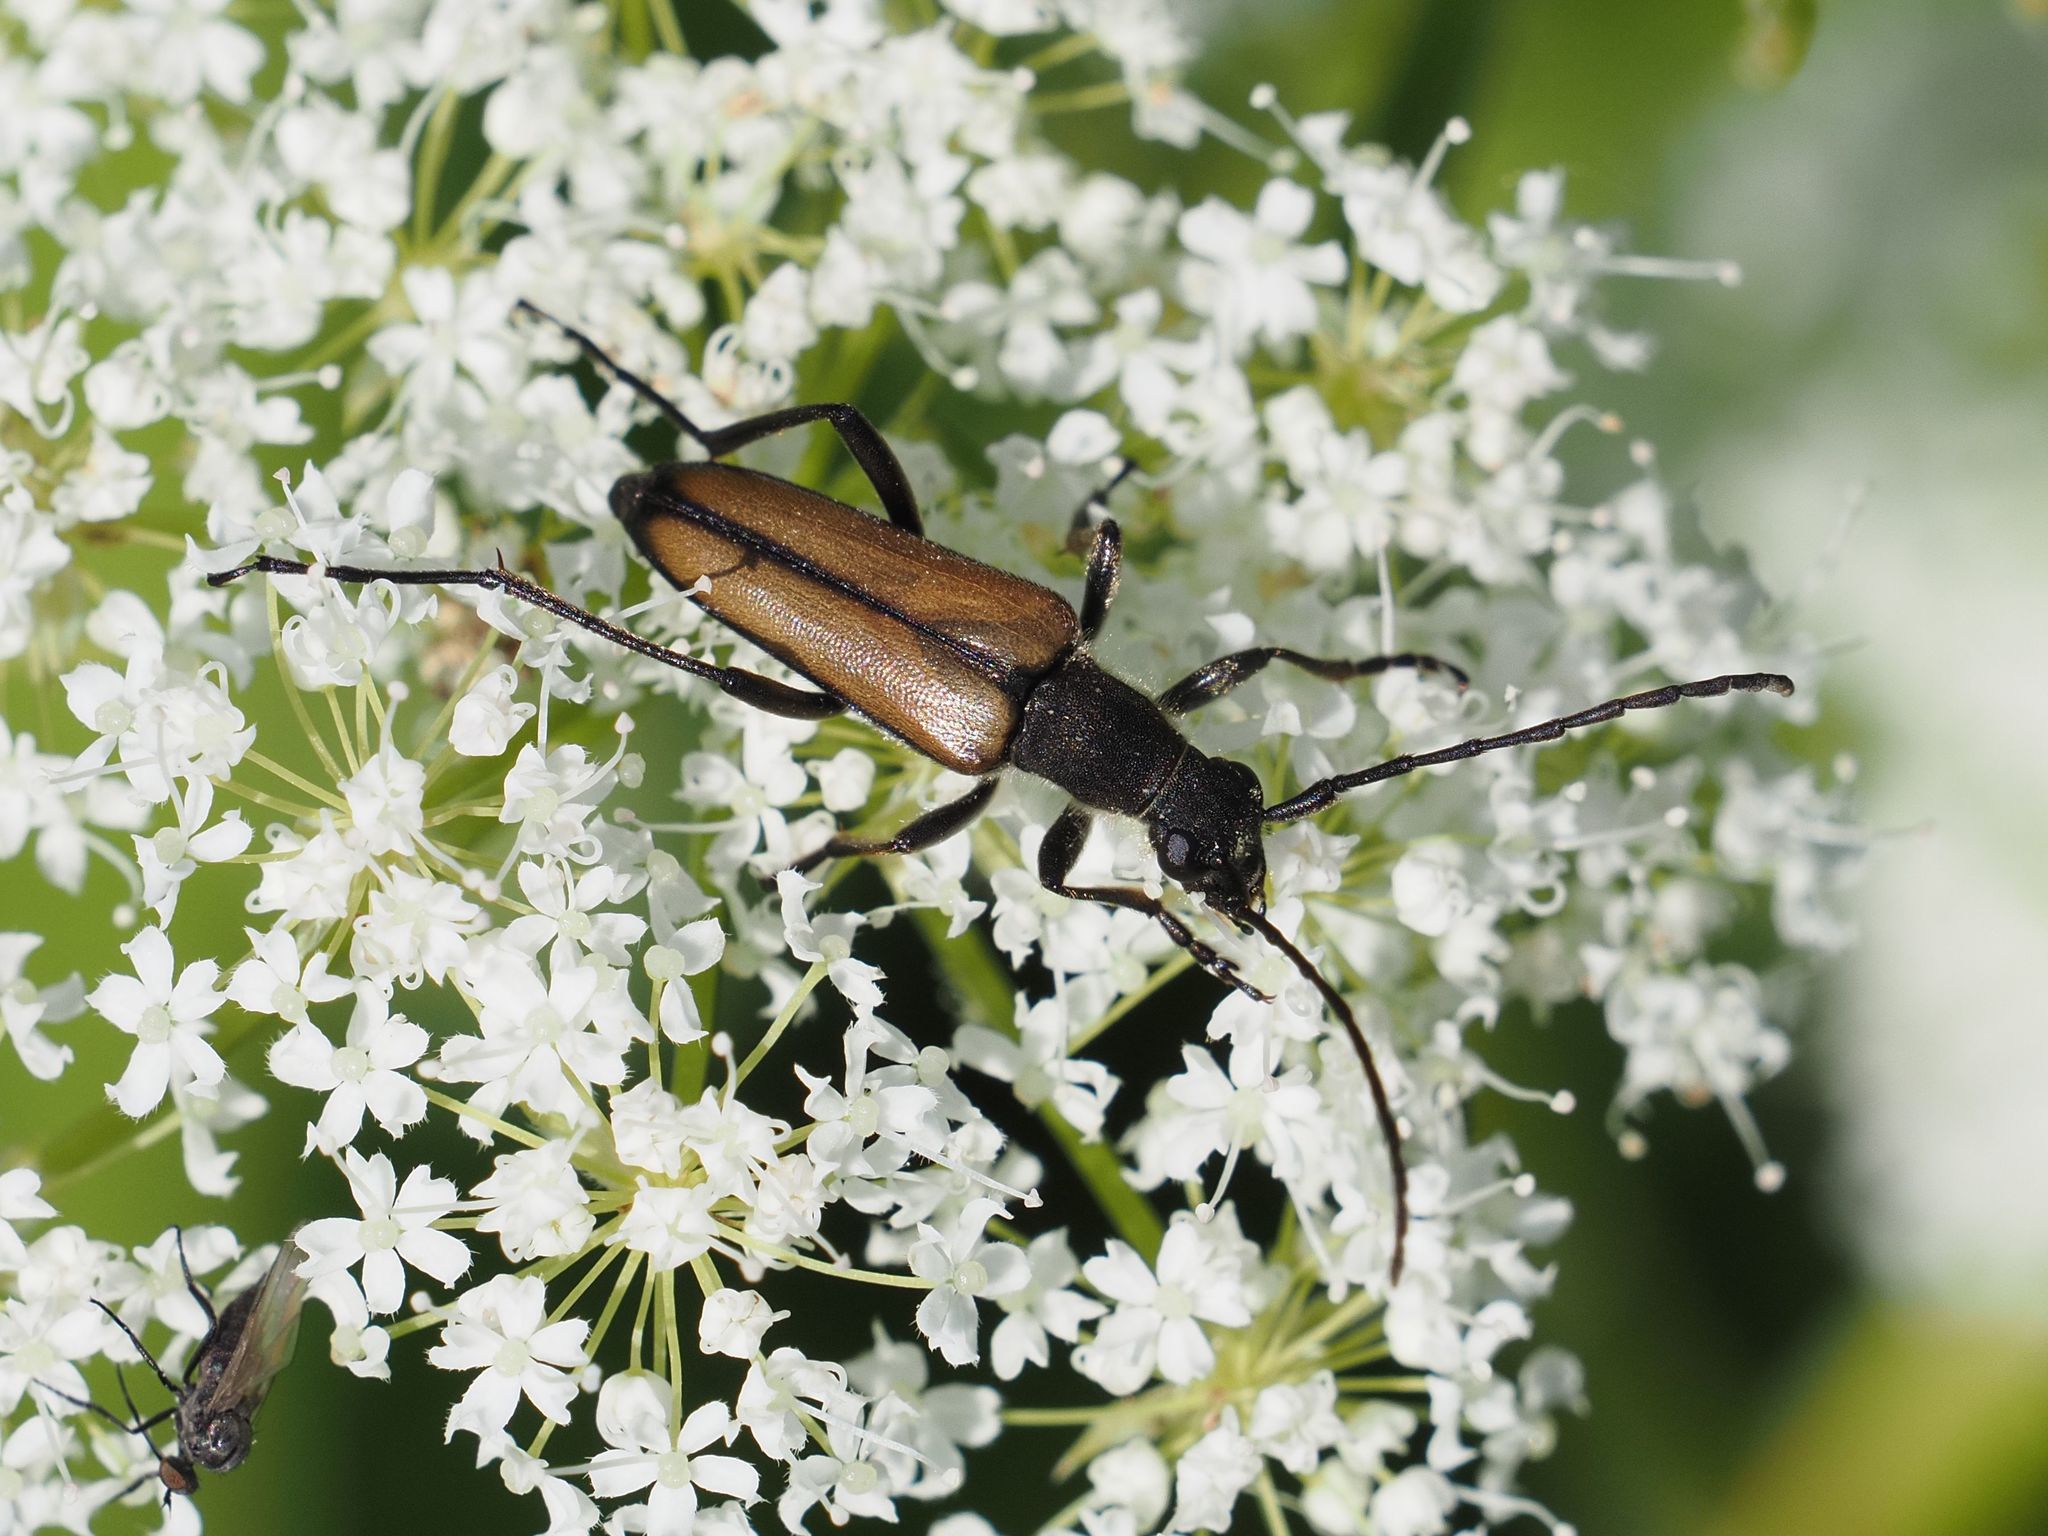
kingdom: Animalia
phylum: Arthropoda
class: Insecta
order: Coleoptera
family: Cerambycidae
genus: Anastrangalia
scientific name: Anastrangalia dubia
